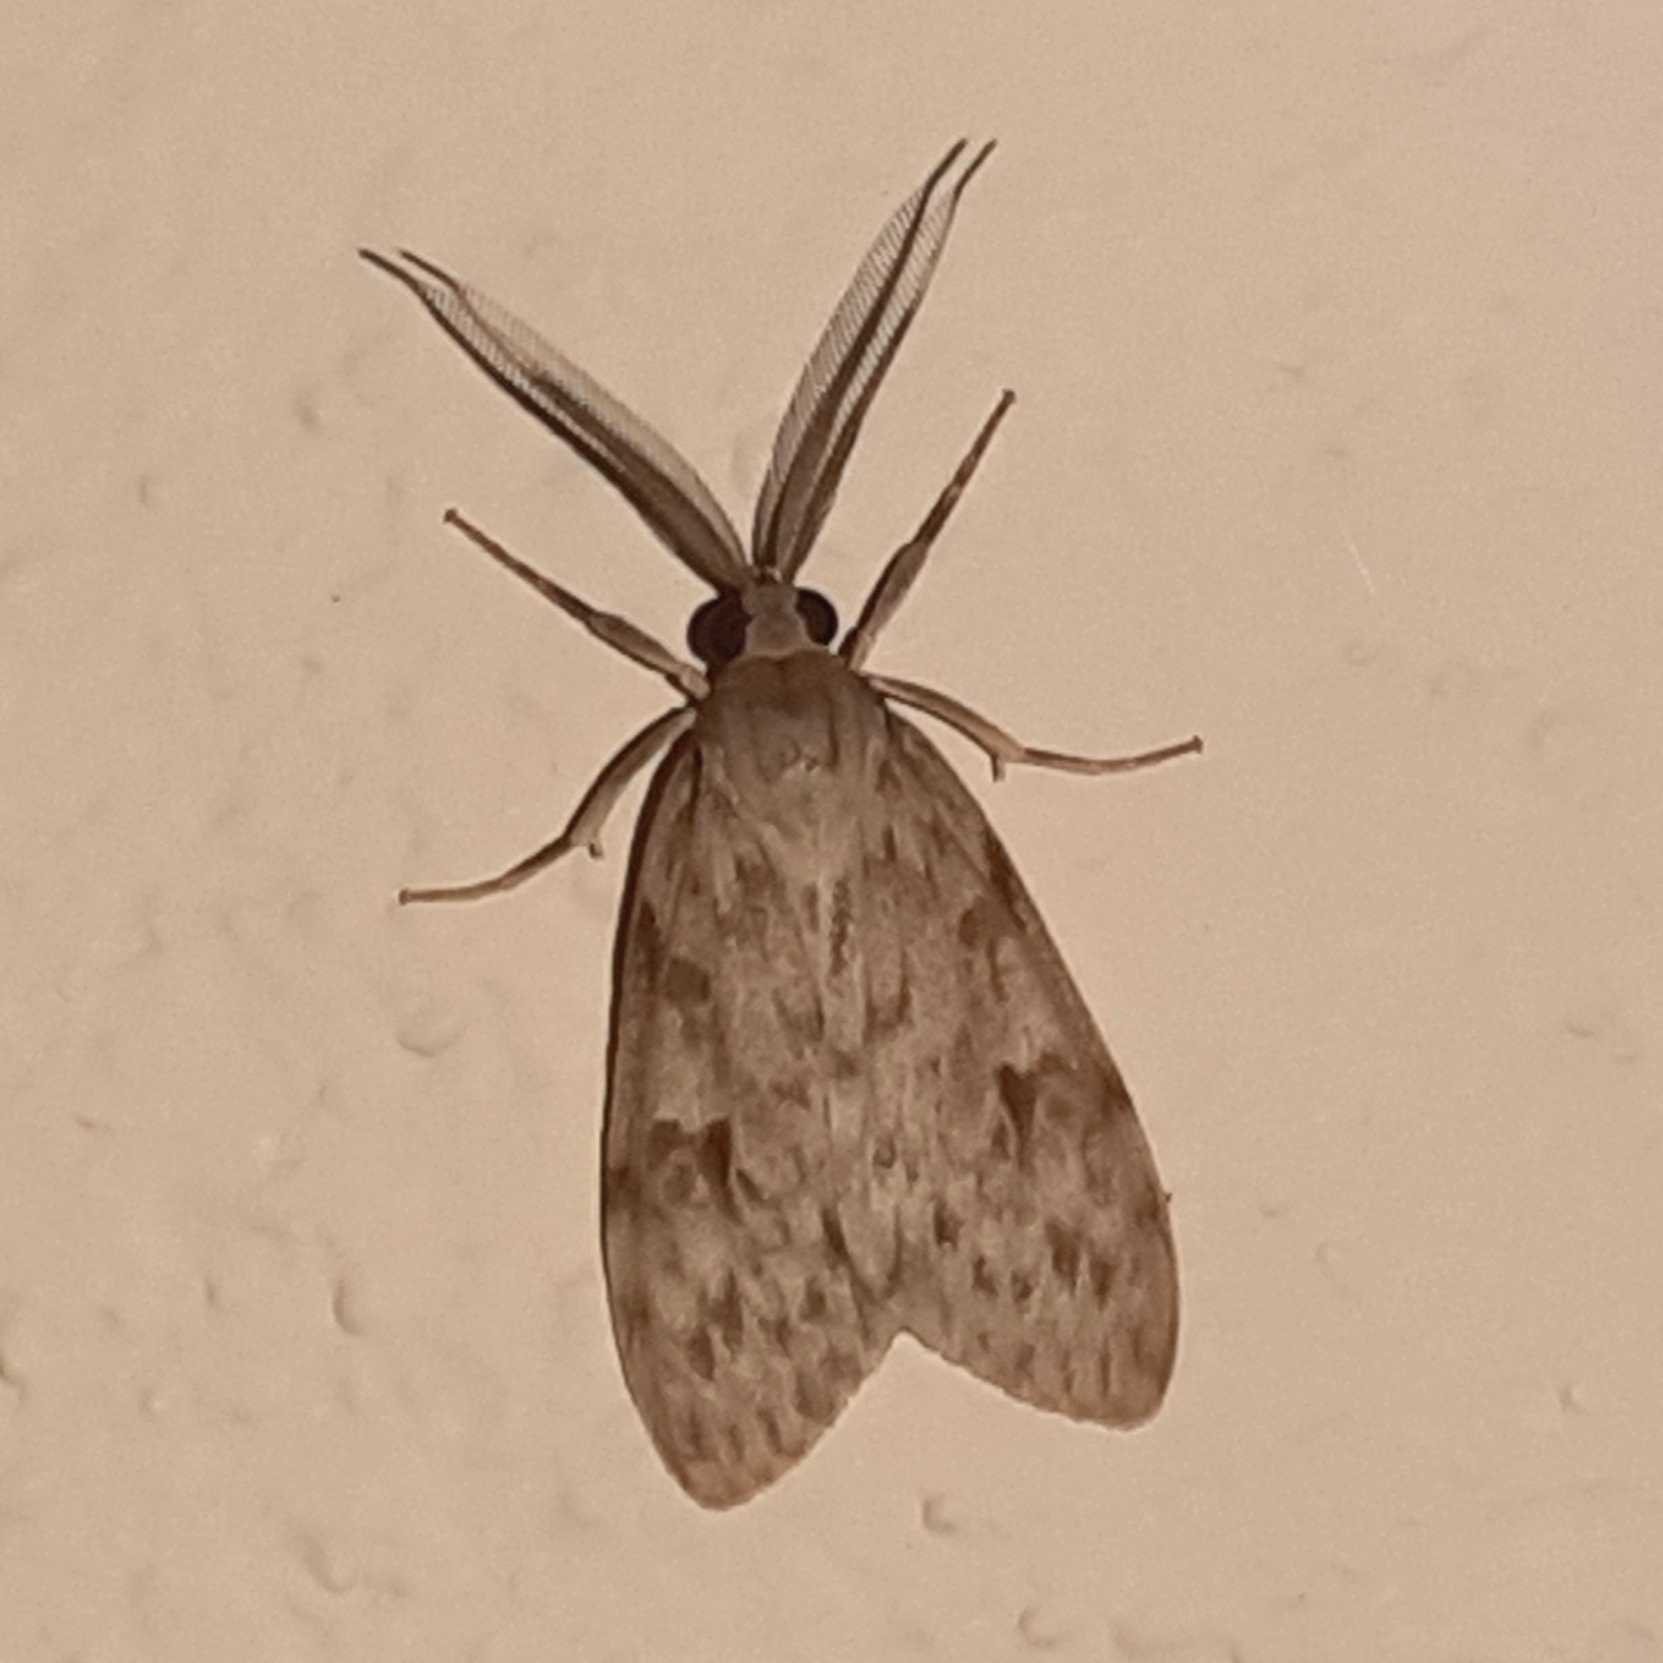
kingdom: Animalia
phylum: Arthropoda
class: Insecta
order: Lepidoptera
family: Erebidae
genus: Eucereon
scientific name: Eucereon xanthoperas
